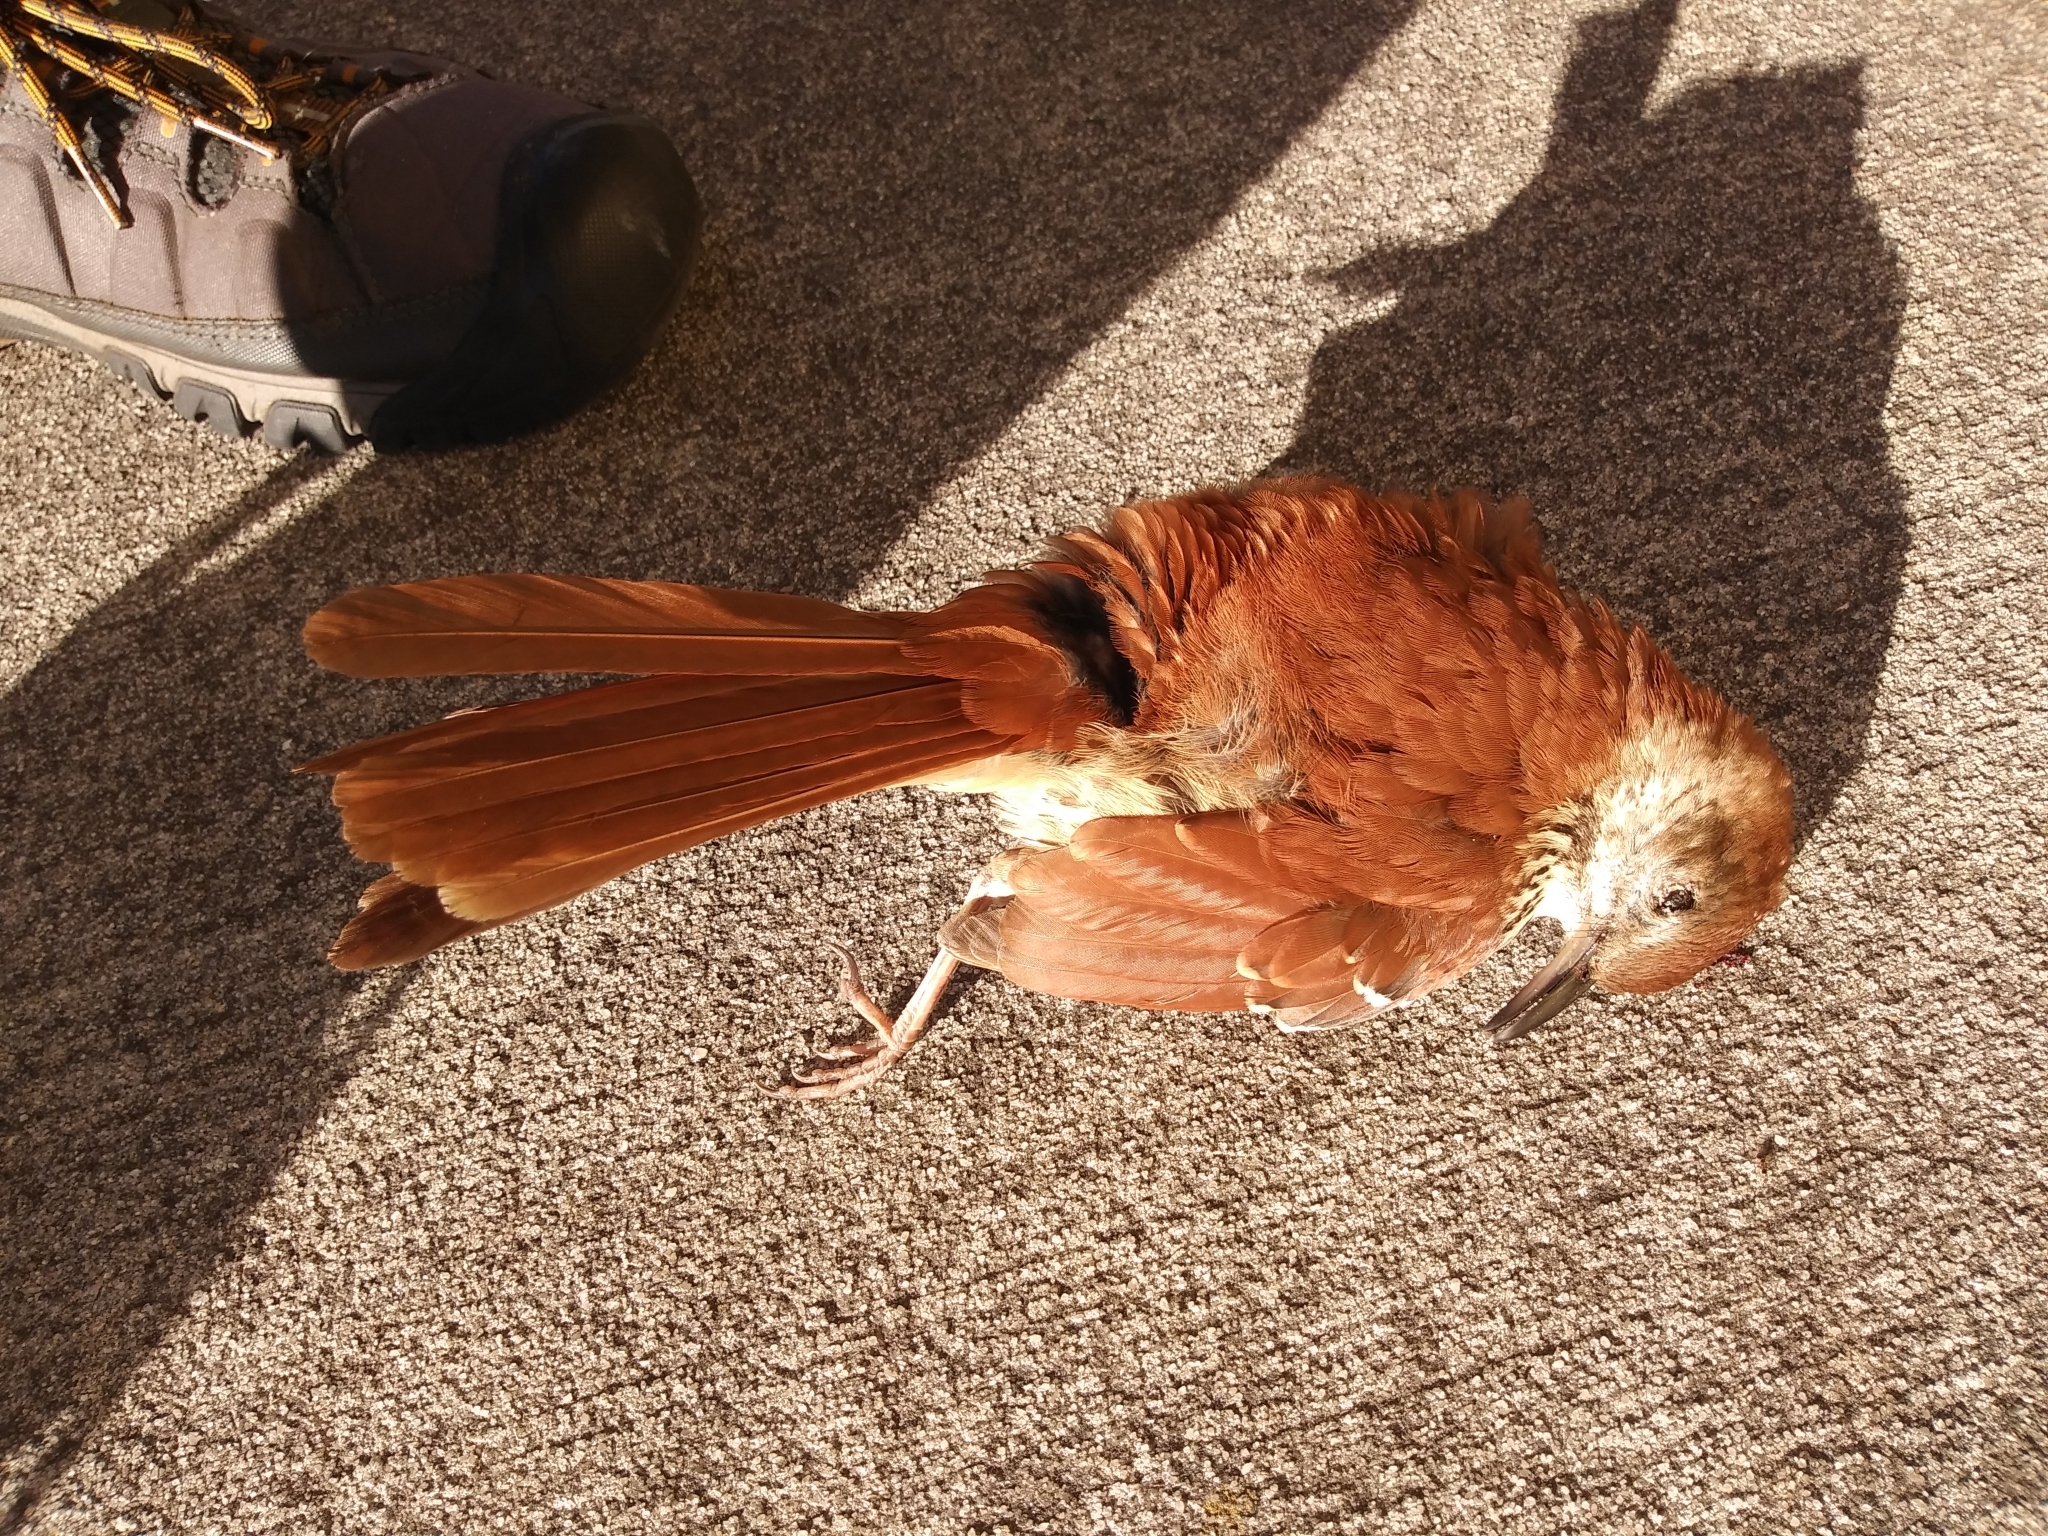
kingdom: Animalia
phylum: Chordata
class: Aves
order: Passeriformes
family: Mimidae
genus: Toxostoma
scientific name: Toxostoma rufum
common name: Brown thrasher
